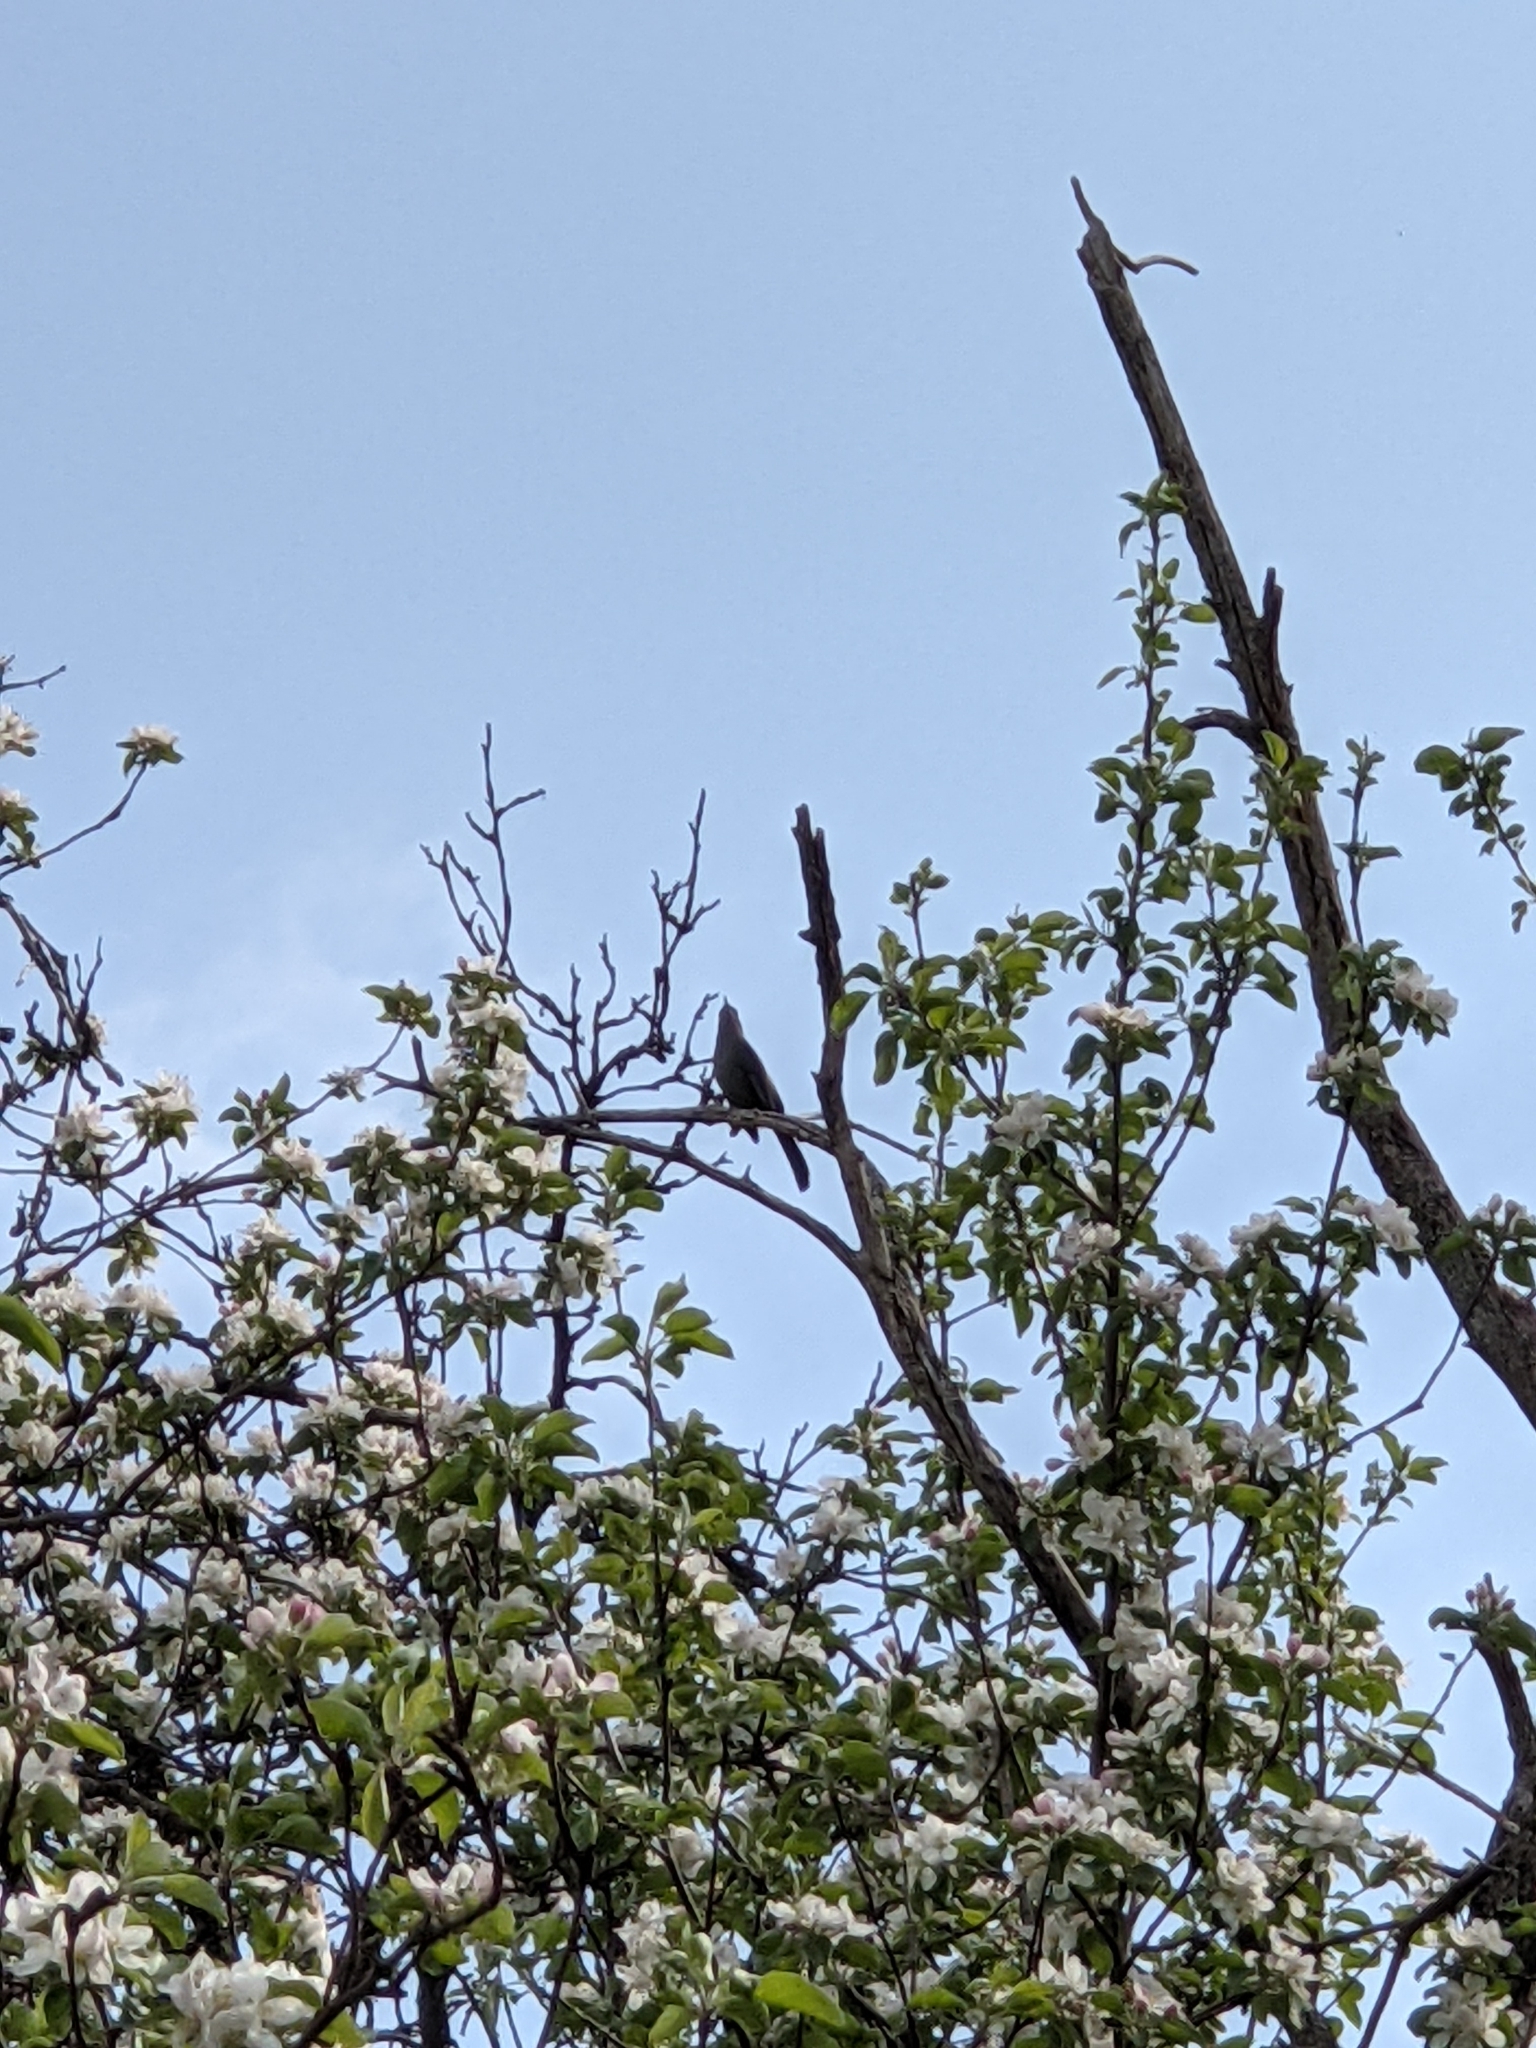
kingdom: Animalia
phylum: Chordata
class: Aves
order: Passeriformes
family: Mimidae
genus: Dumetella
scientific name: Dumetella carolinensis
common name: Gray catbird
